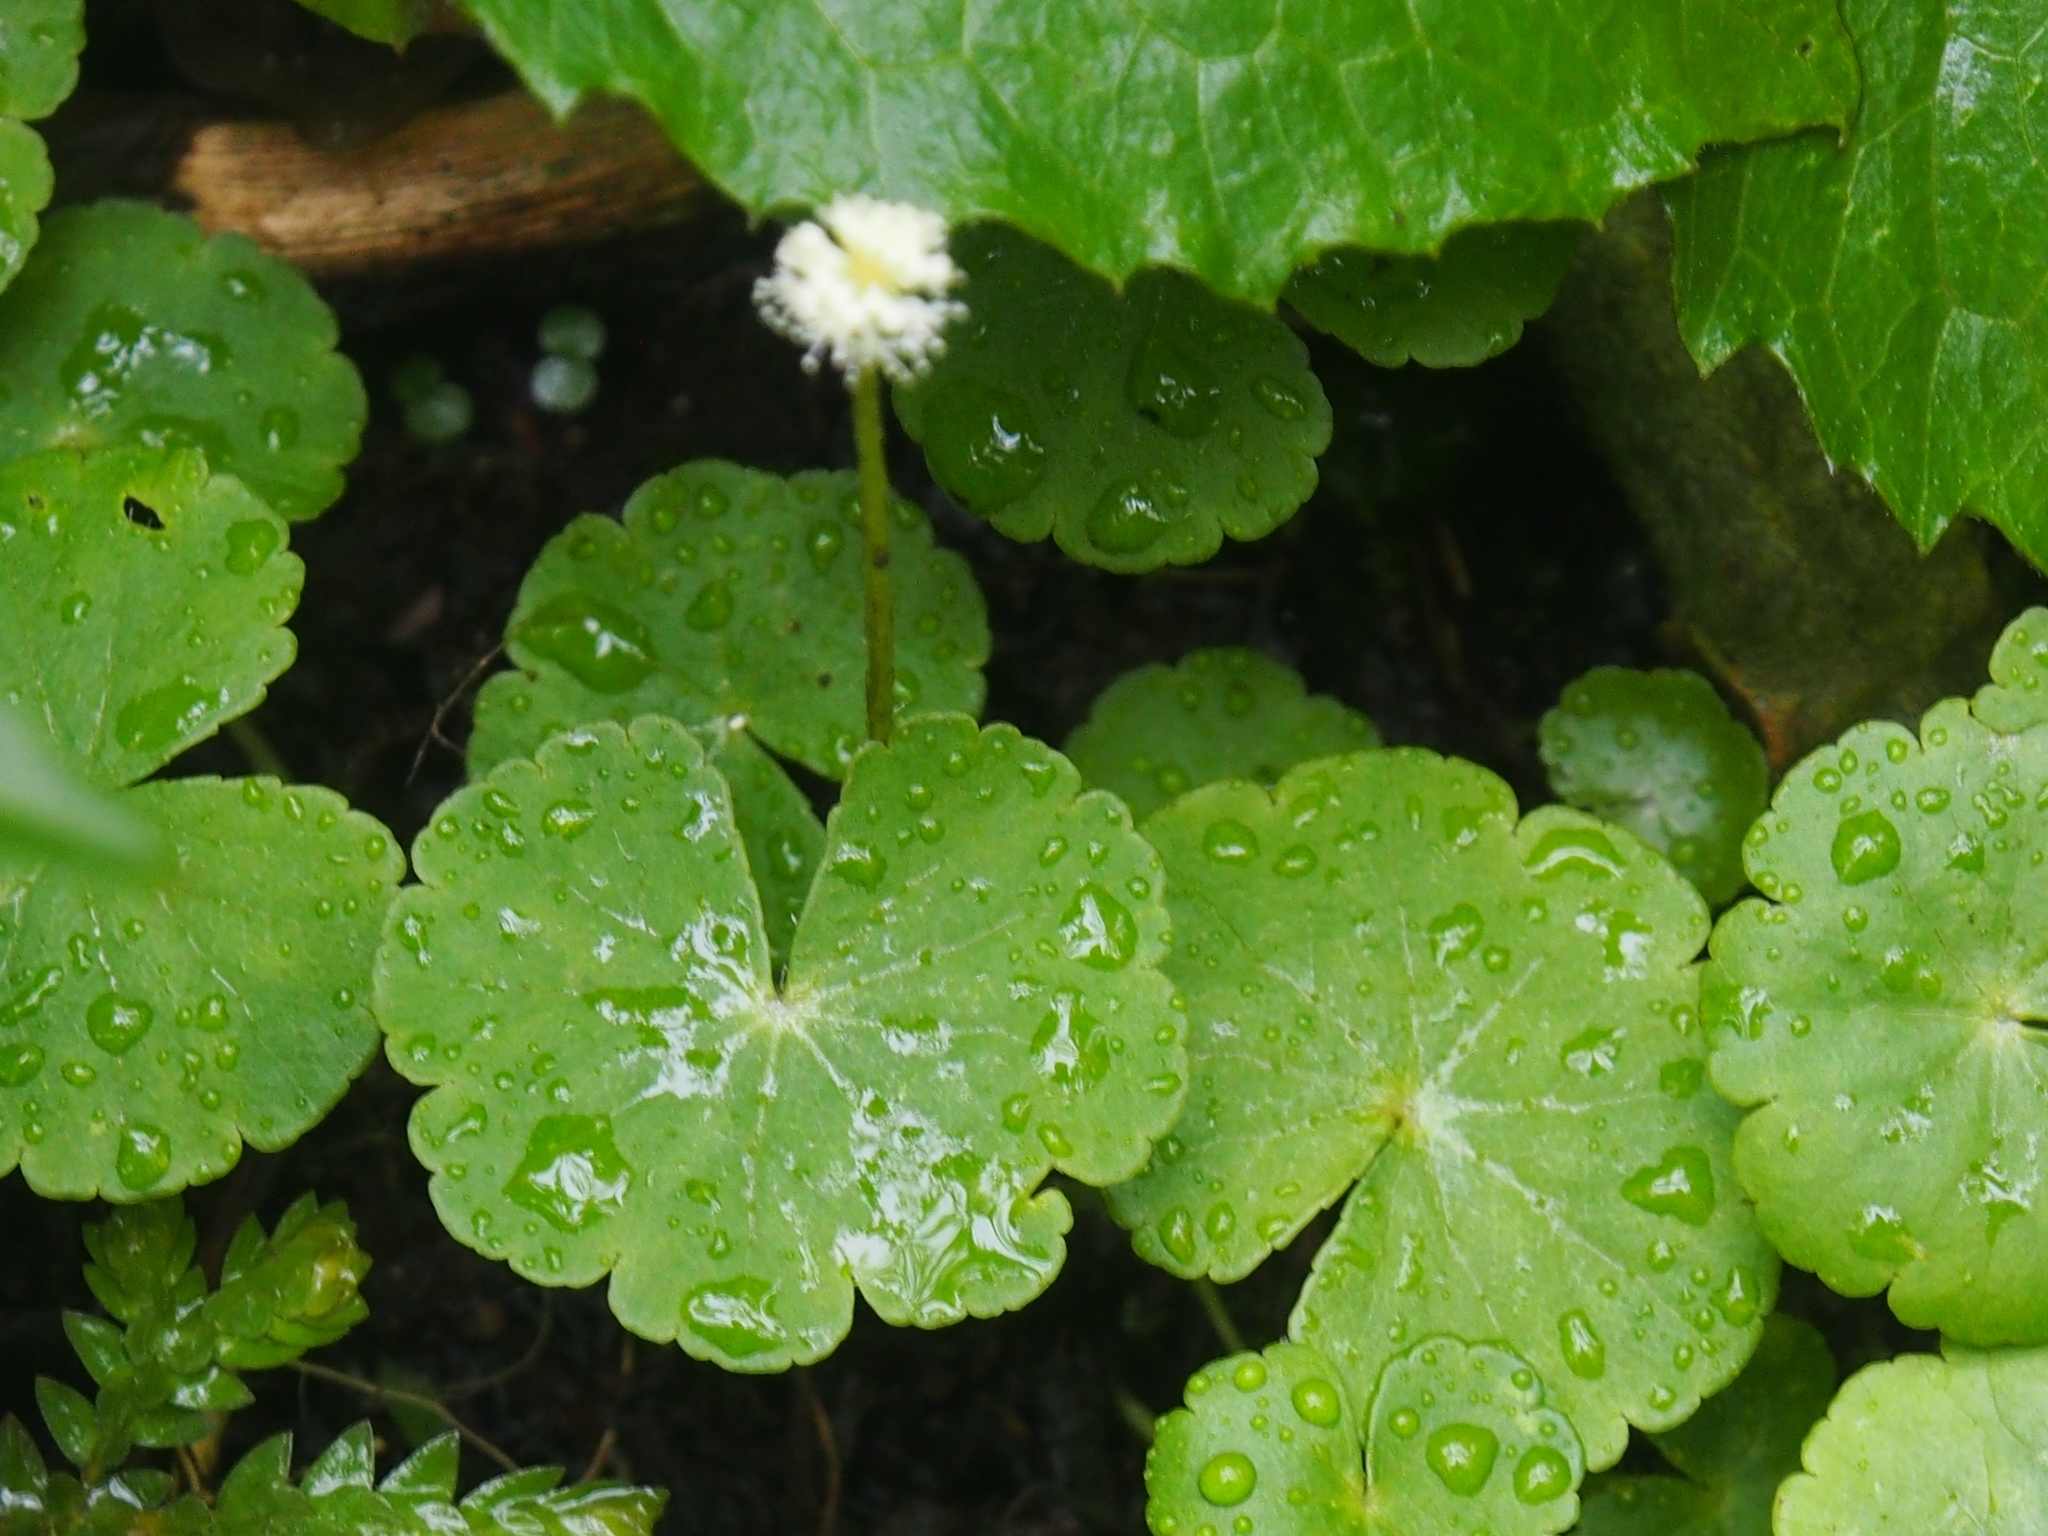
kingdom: Plantae
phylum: Tracheophyta
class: Magnoliopsida
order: Apiales
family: Araliaceae
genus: Hydrocotyle
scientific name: Hydrocotyle leucocephala
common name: Brazilian pennywort
